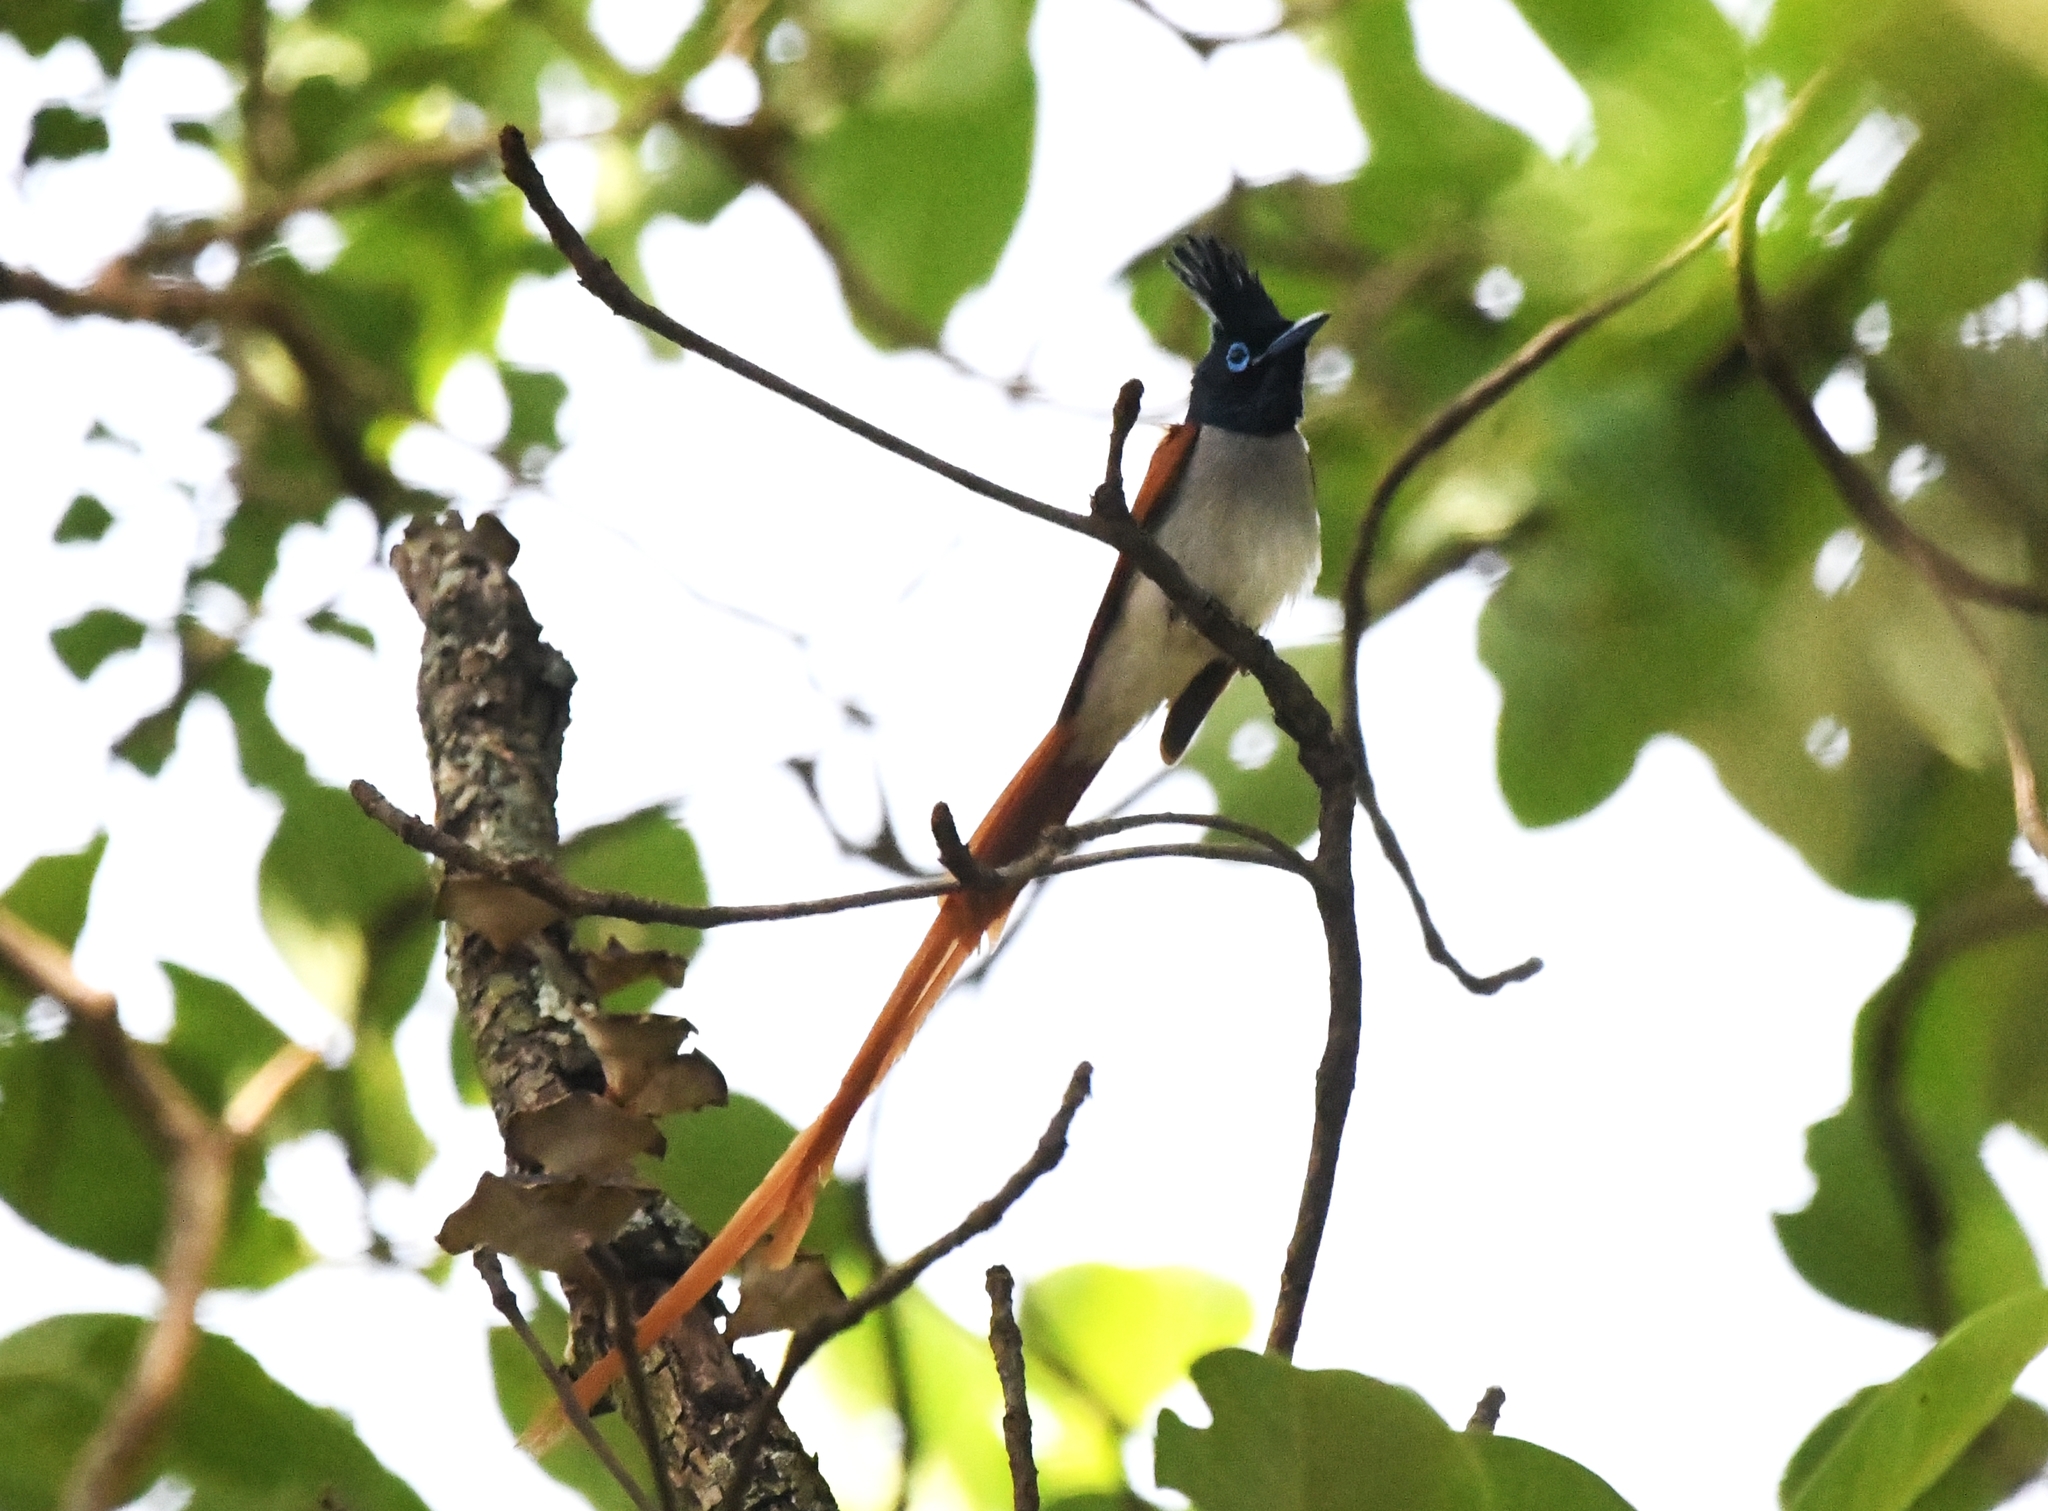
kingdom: Animalia
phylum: Chordata
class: Aves
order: Passeriformes
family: Monarchidae
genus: Terpsiphone
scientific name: Terpsiphone paradisi
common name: Indian paradise flycatcher
